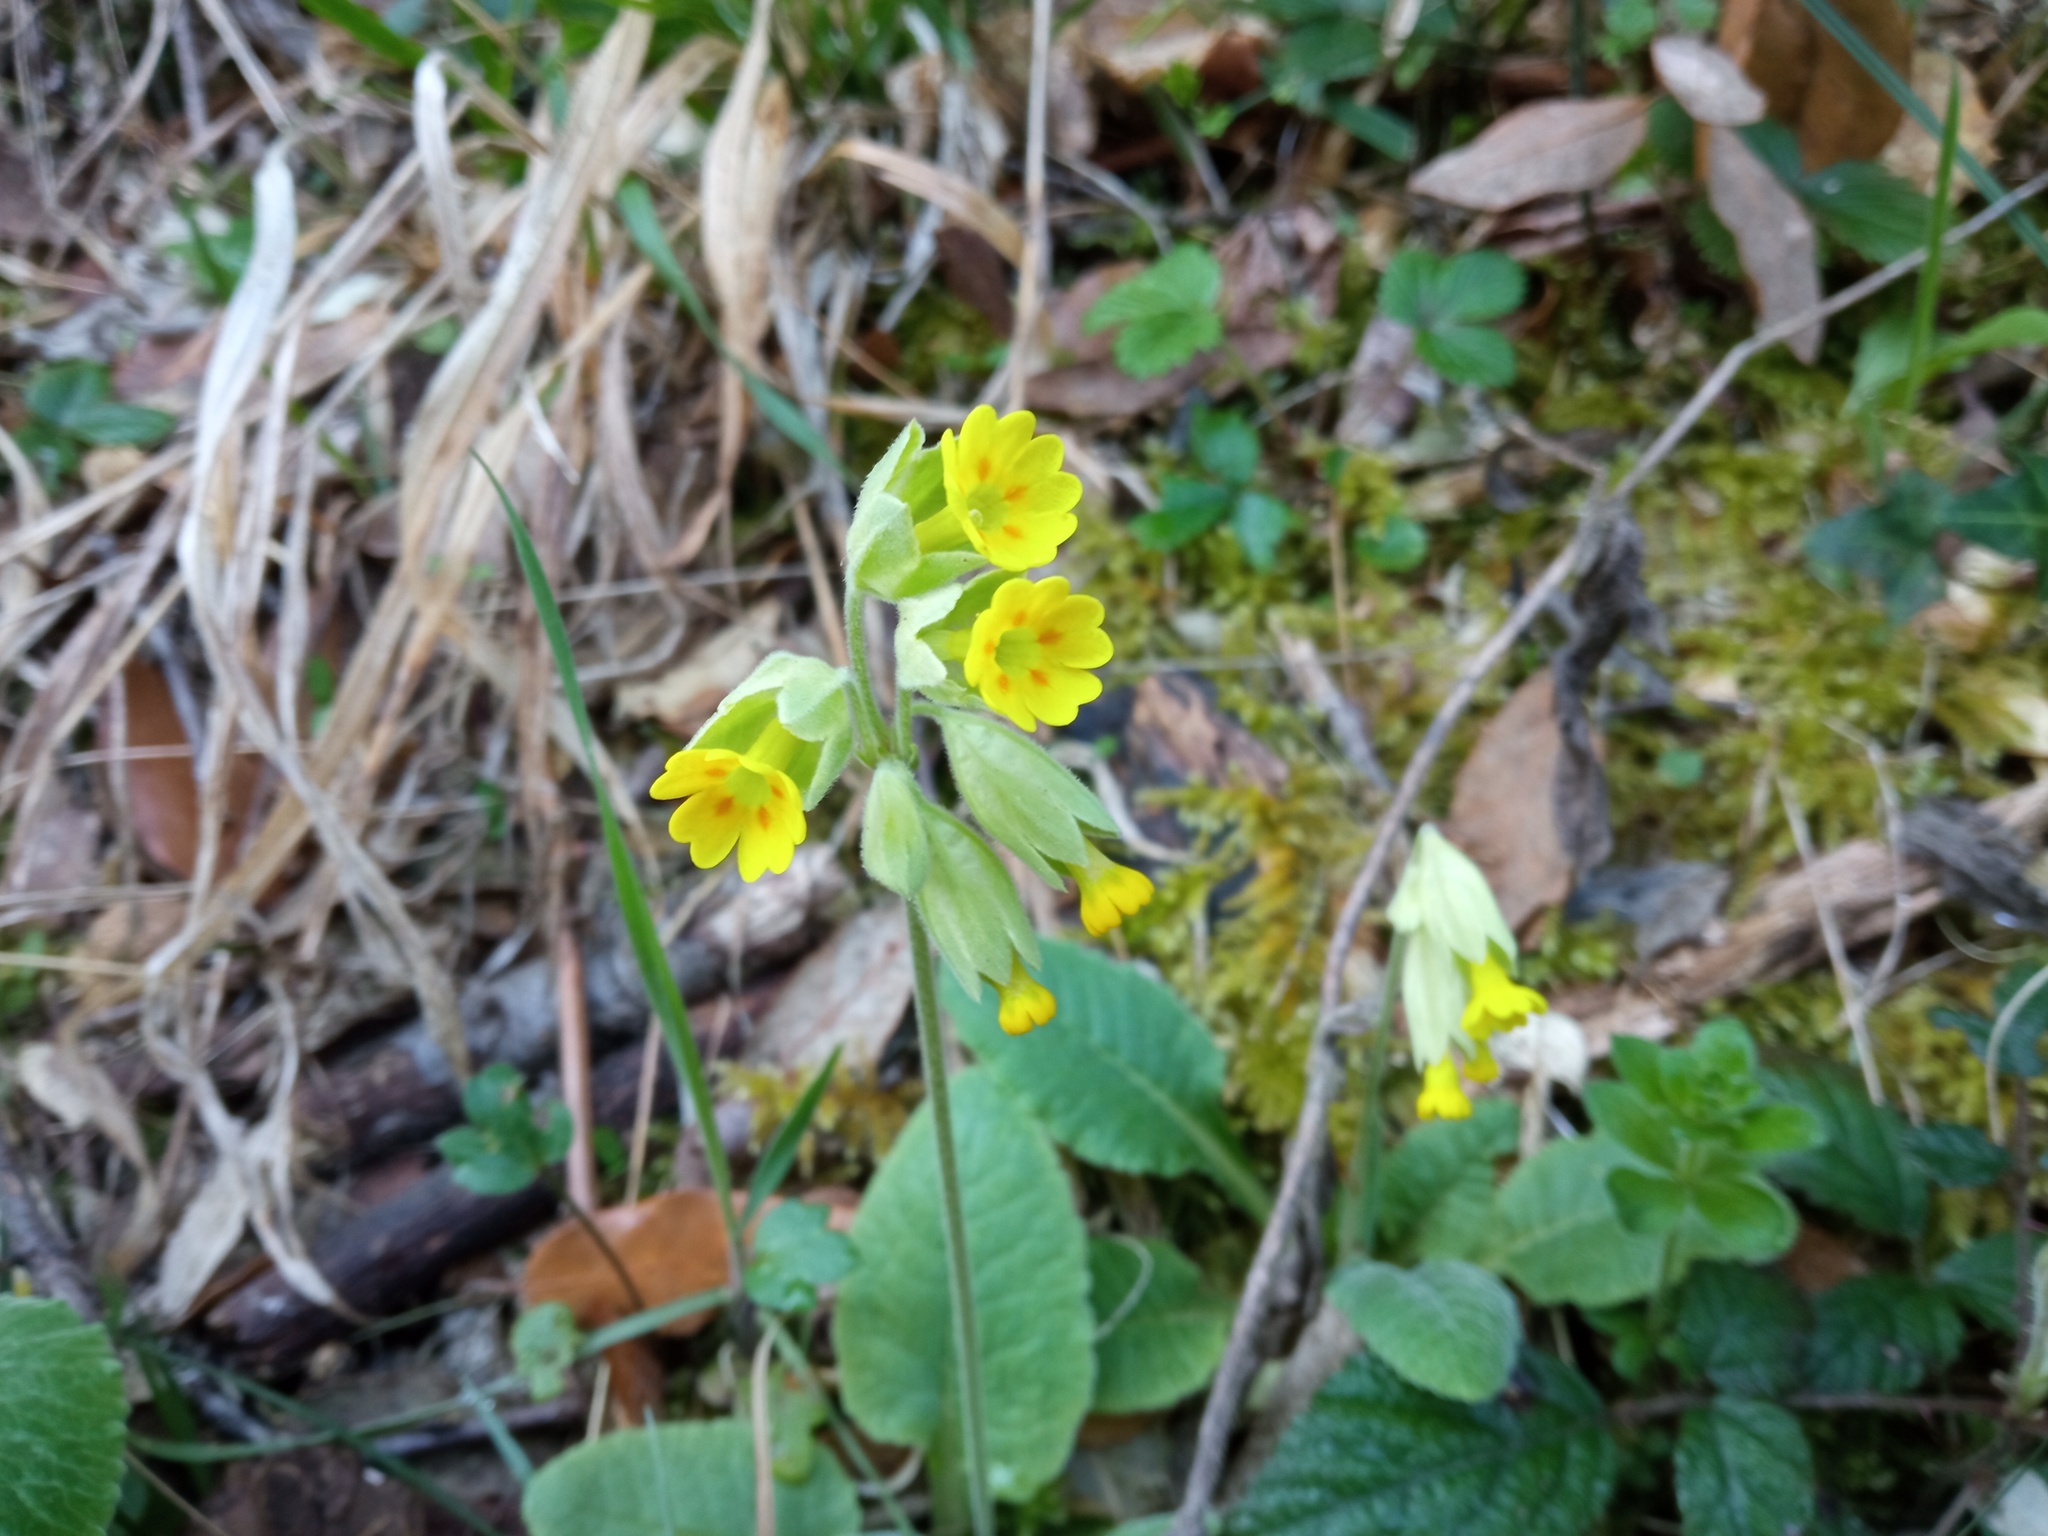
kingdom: Plantae
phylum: Tracheophyta
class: Magnoliopsida
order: Ericales
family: Primulaceae
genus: Primula
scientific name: Primula veris
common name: Cowslip
